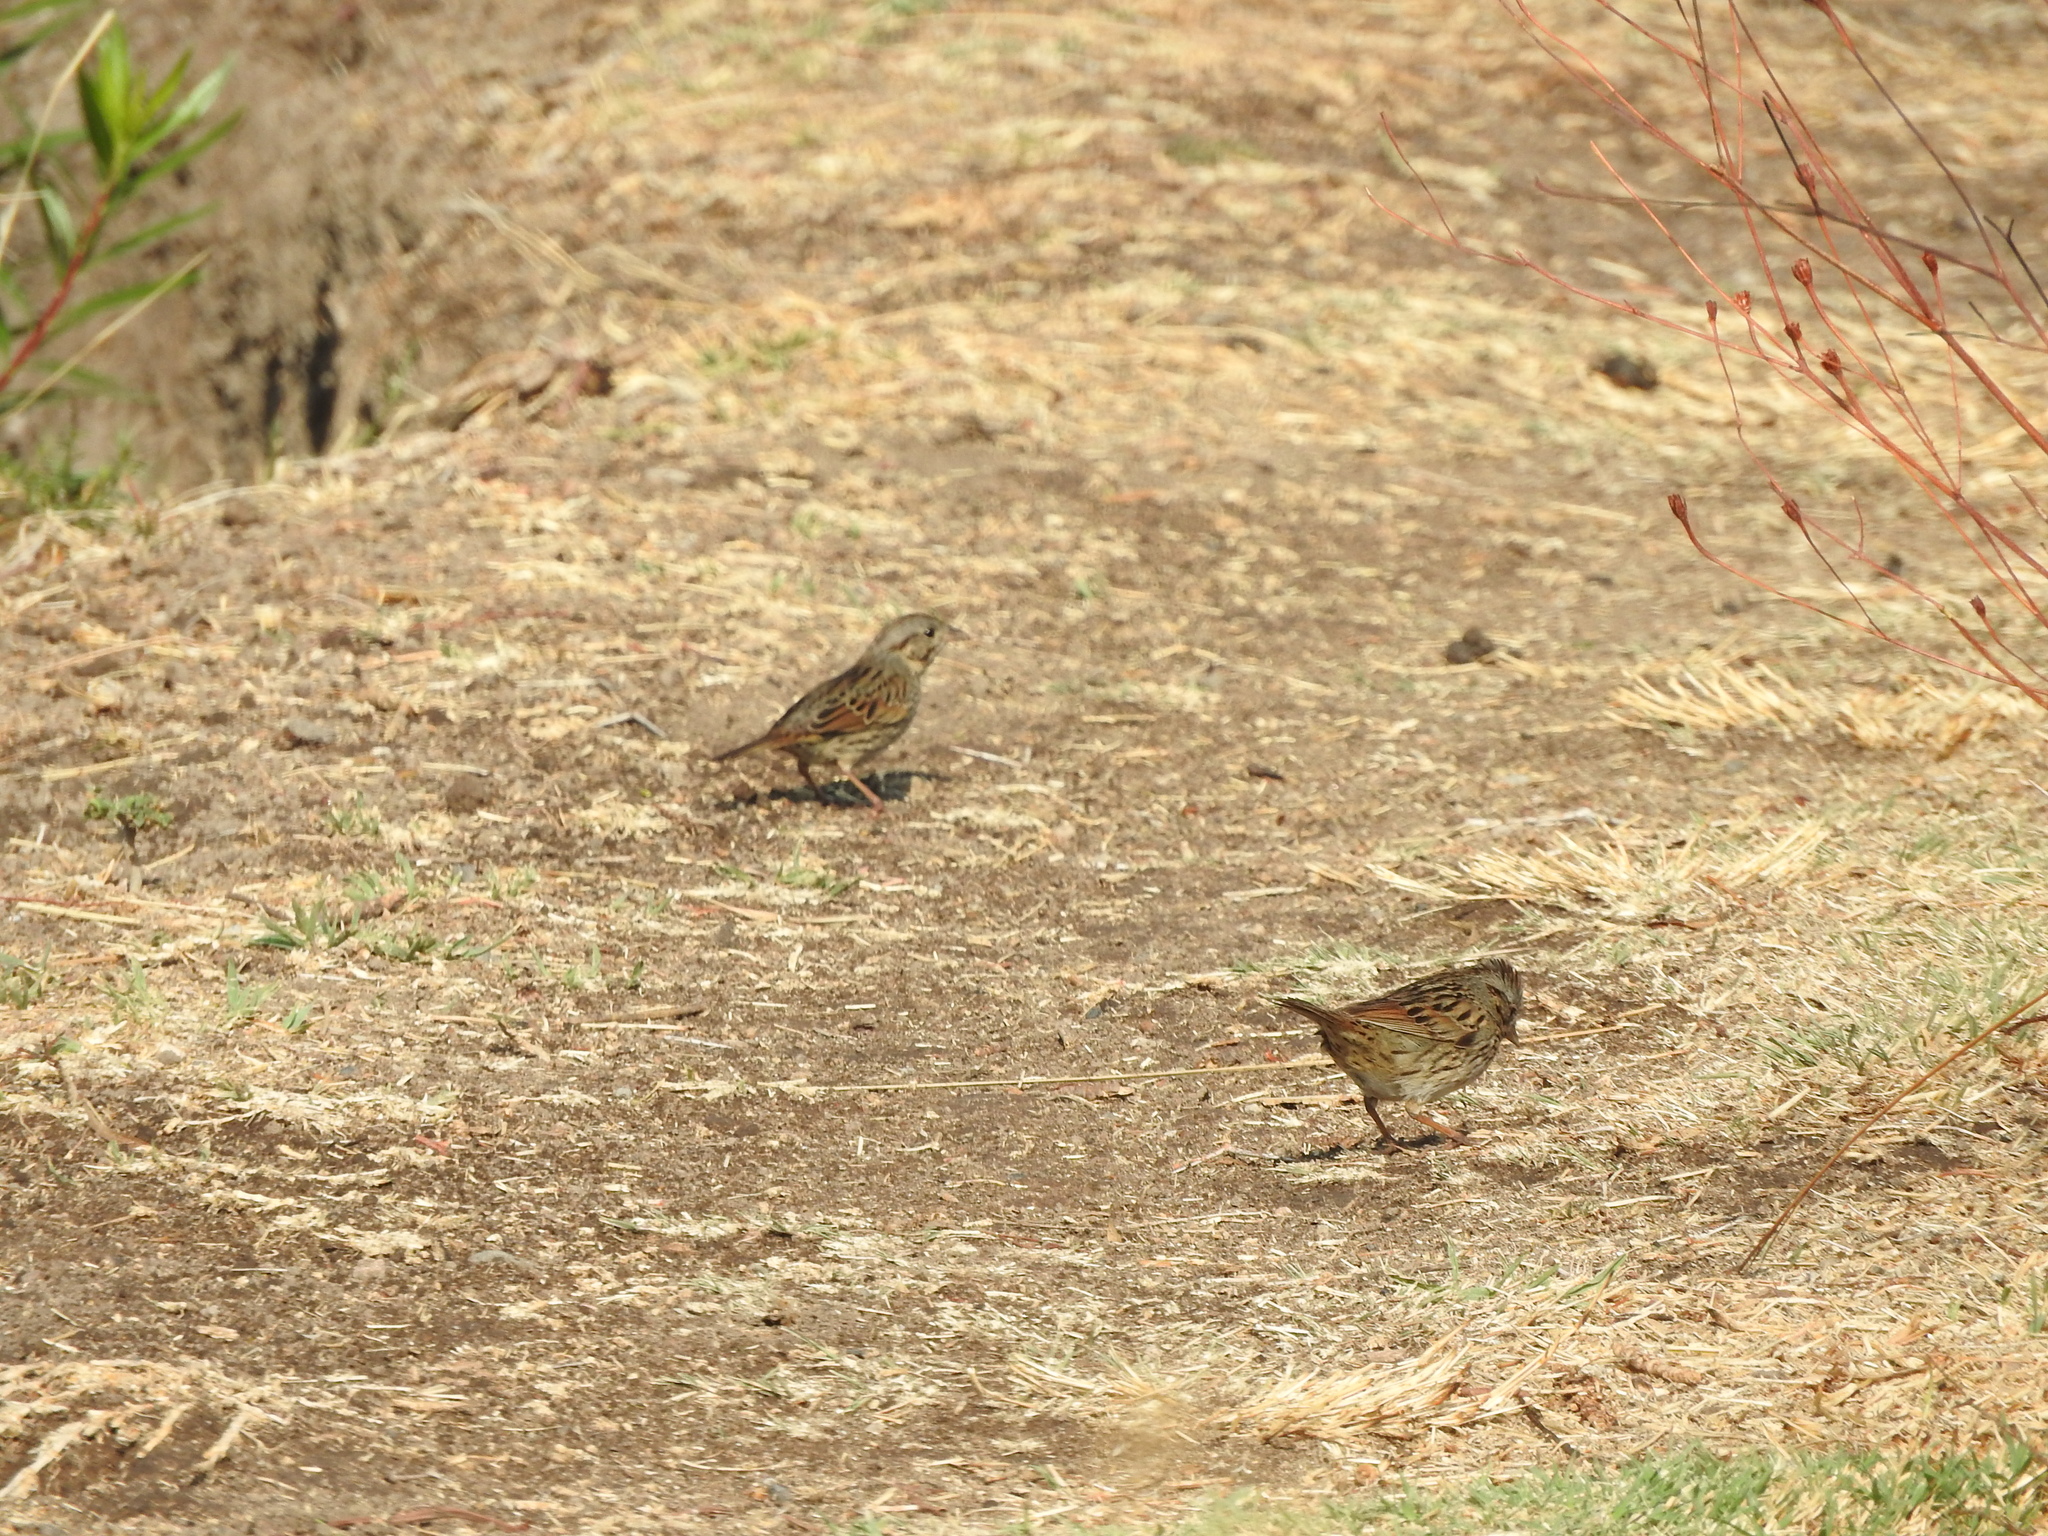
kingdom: Animalia
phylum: Chordata
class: Aves
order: Passeriformes
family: Passerellidae
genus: Melospiza
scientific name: Melospiza lincolnii
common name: Lincoln's sparrow
